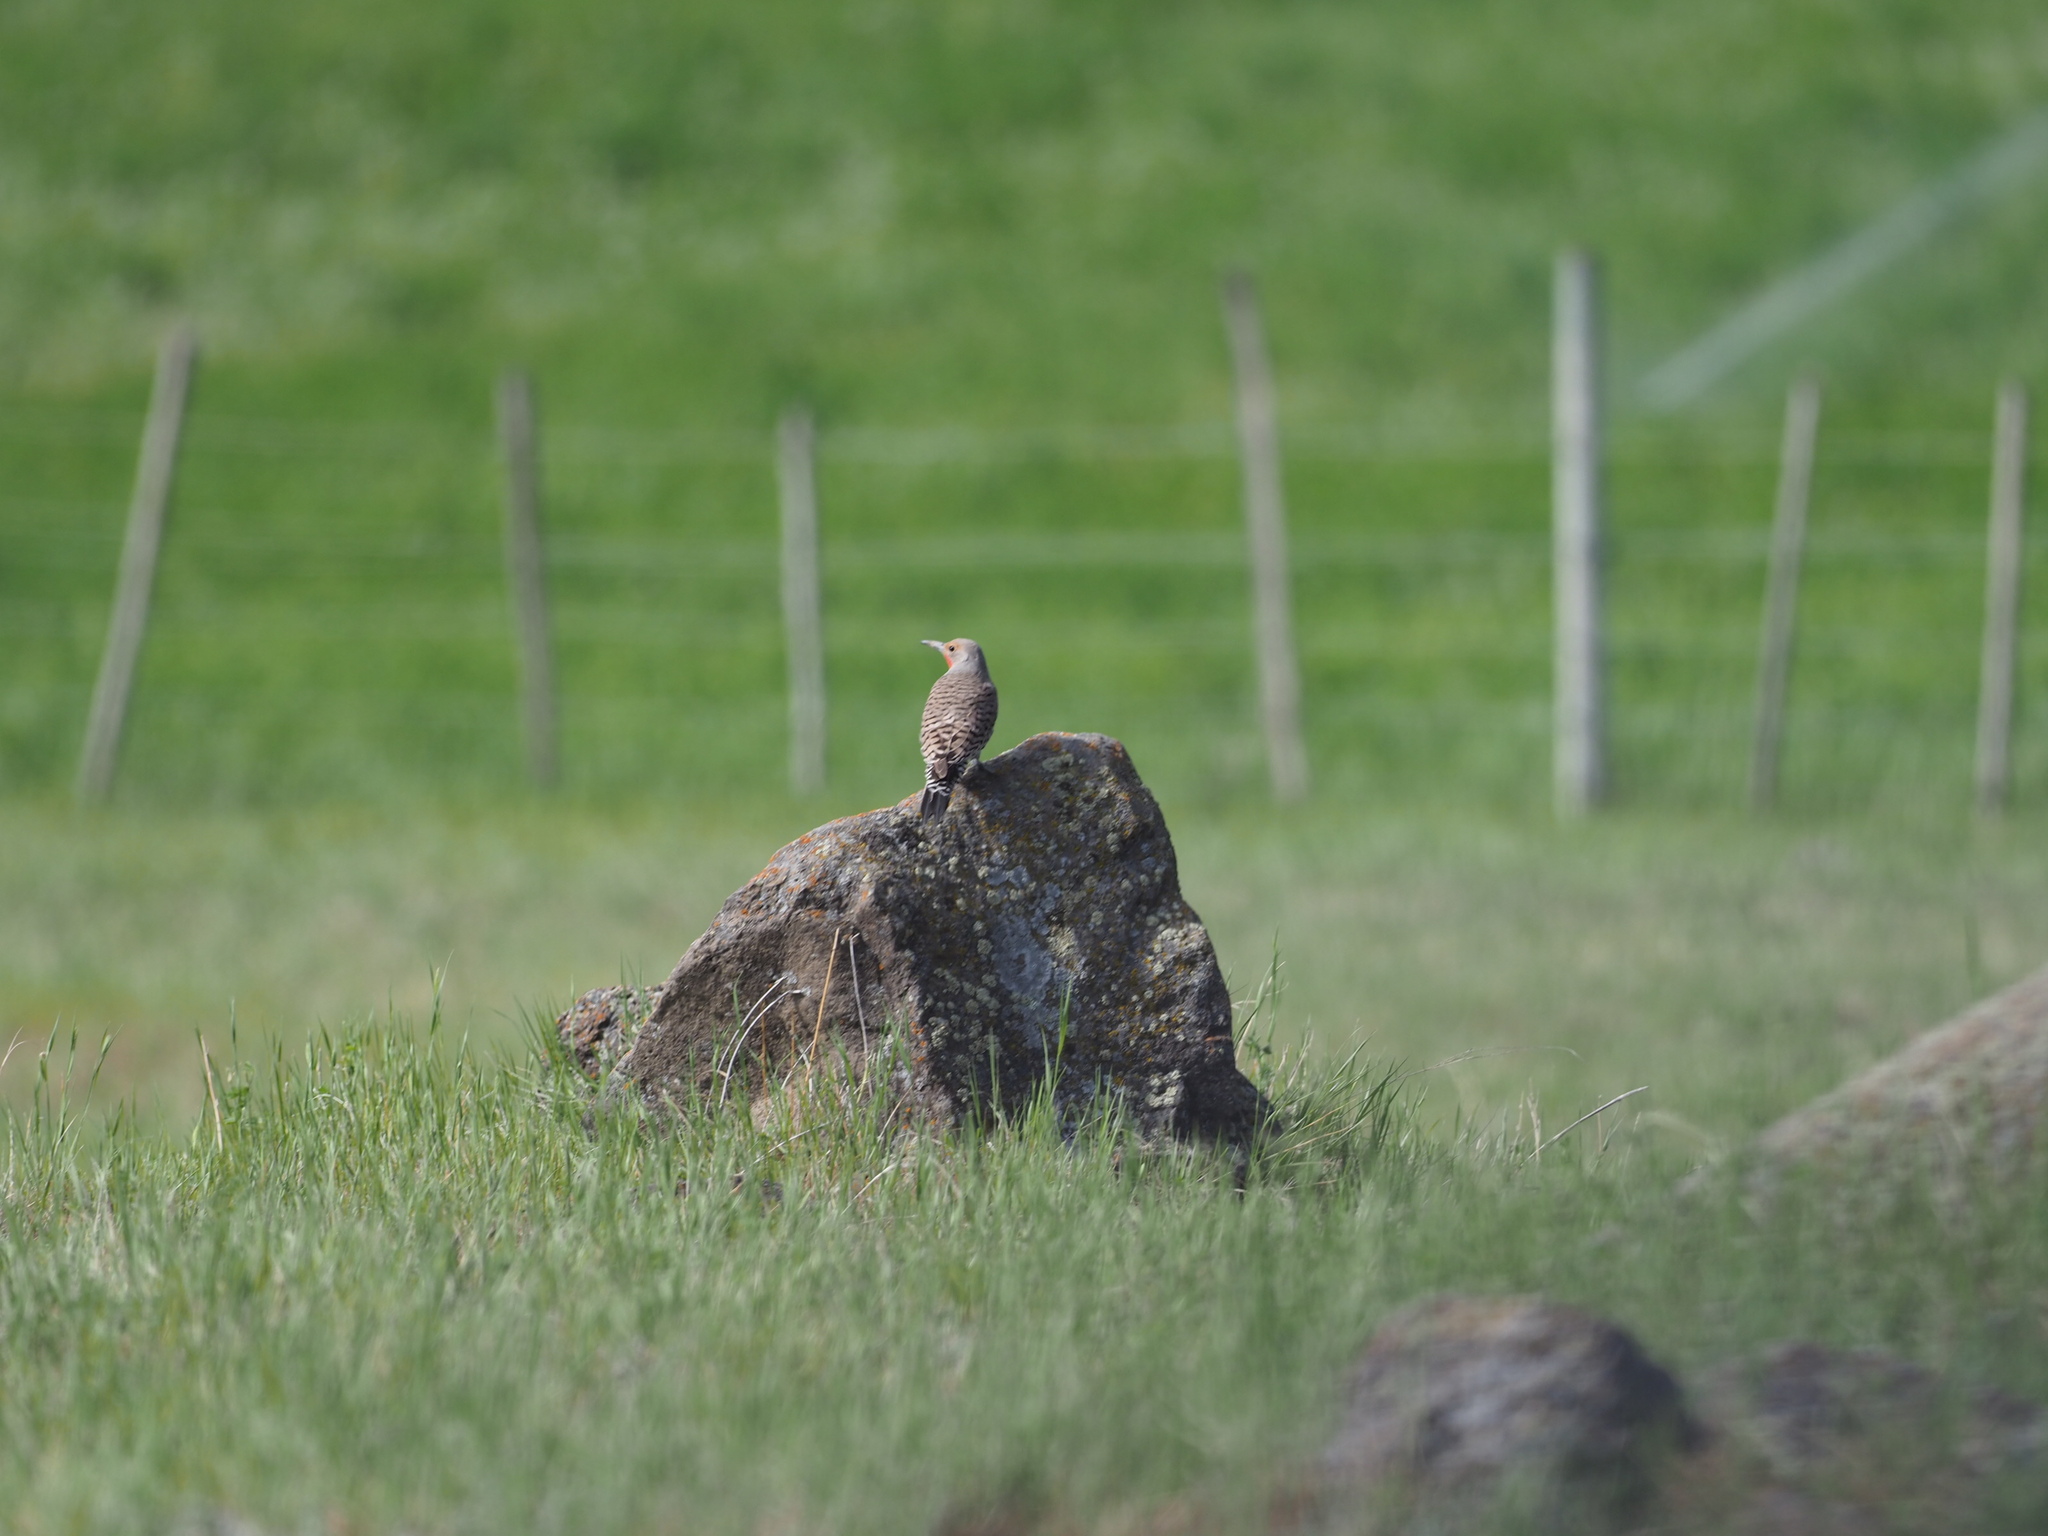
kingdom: Animalia
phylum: Chordata
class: Aves
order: Piciformes
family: Picidae
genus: Colaptes
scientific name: Colaptes auratus
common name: Northern flicker
